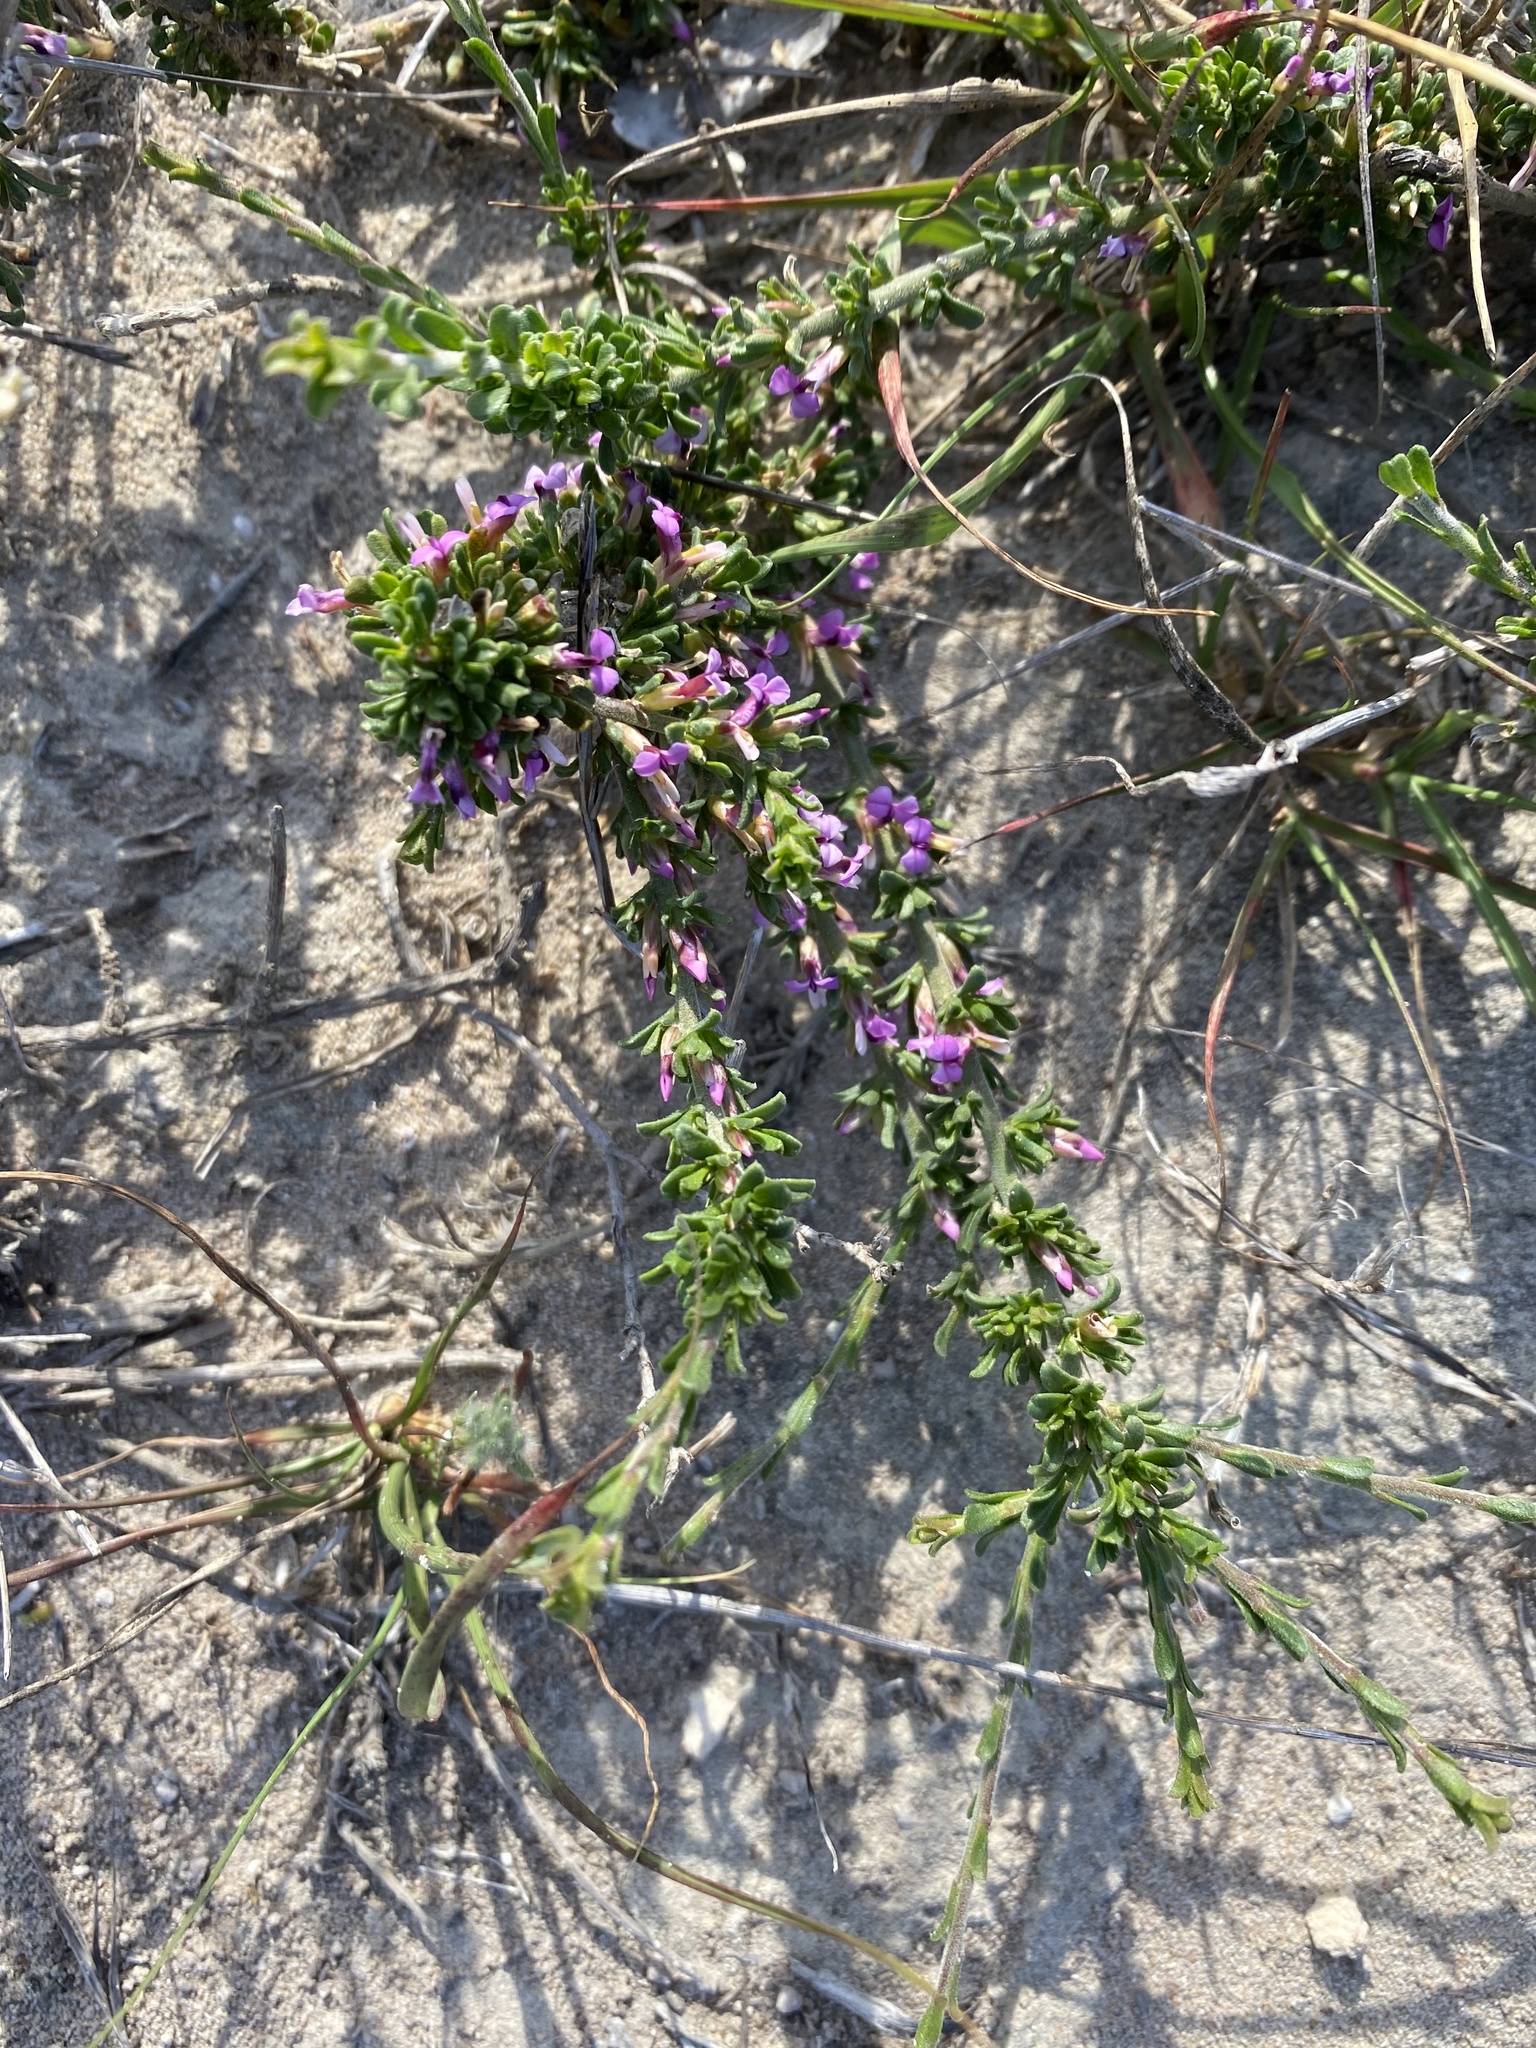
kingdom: Plantae
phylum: Tracheophyta
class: Magnoliopsida
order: Fabales
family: Polygalaceae
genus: Muraltia
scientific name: Muraltia barkerae
